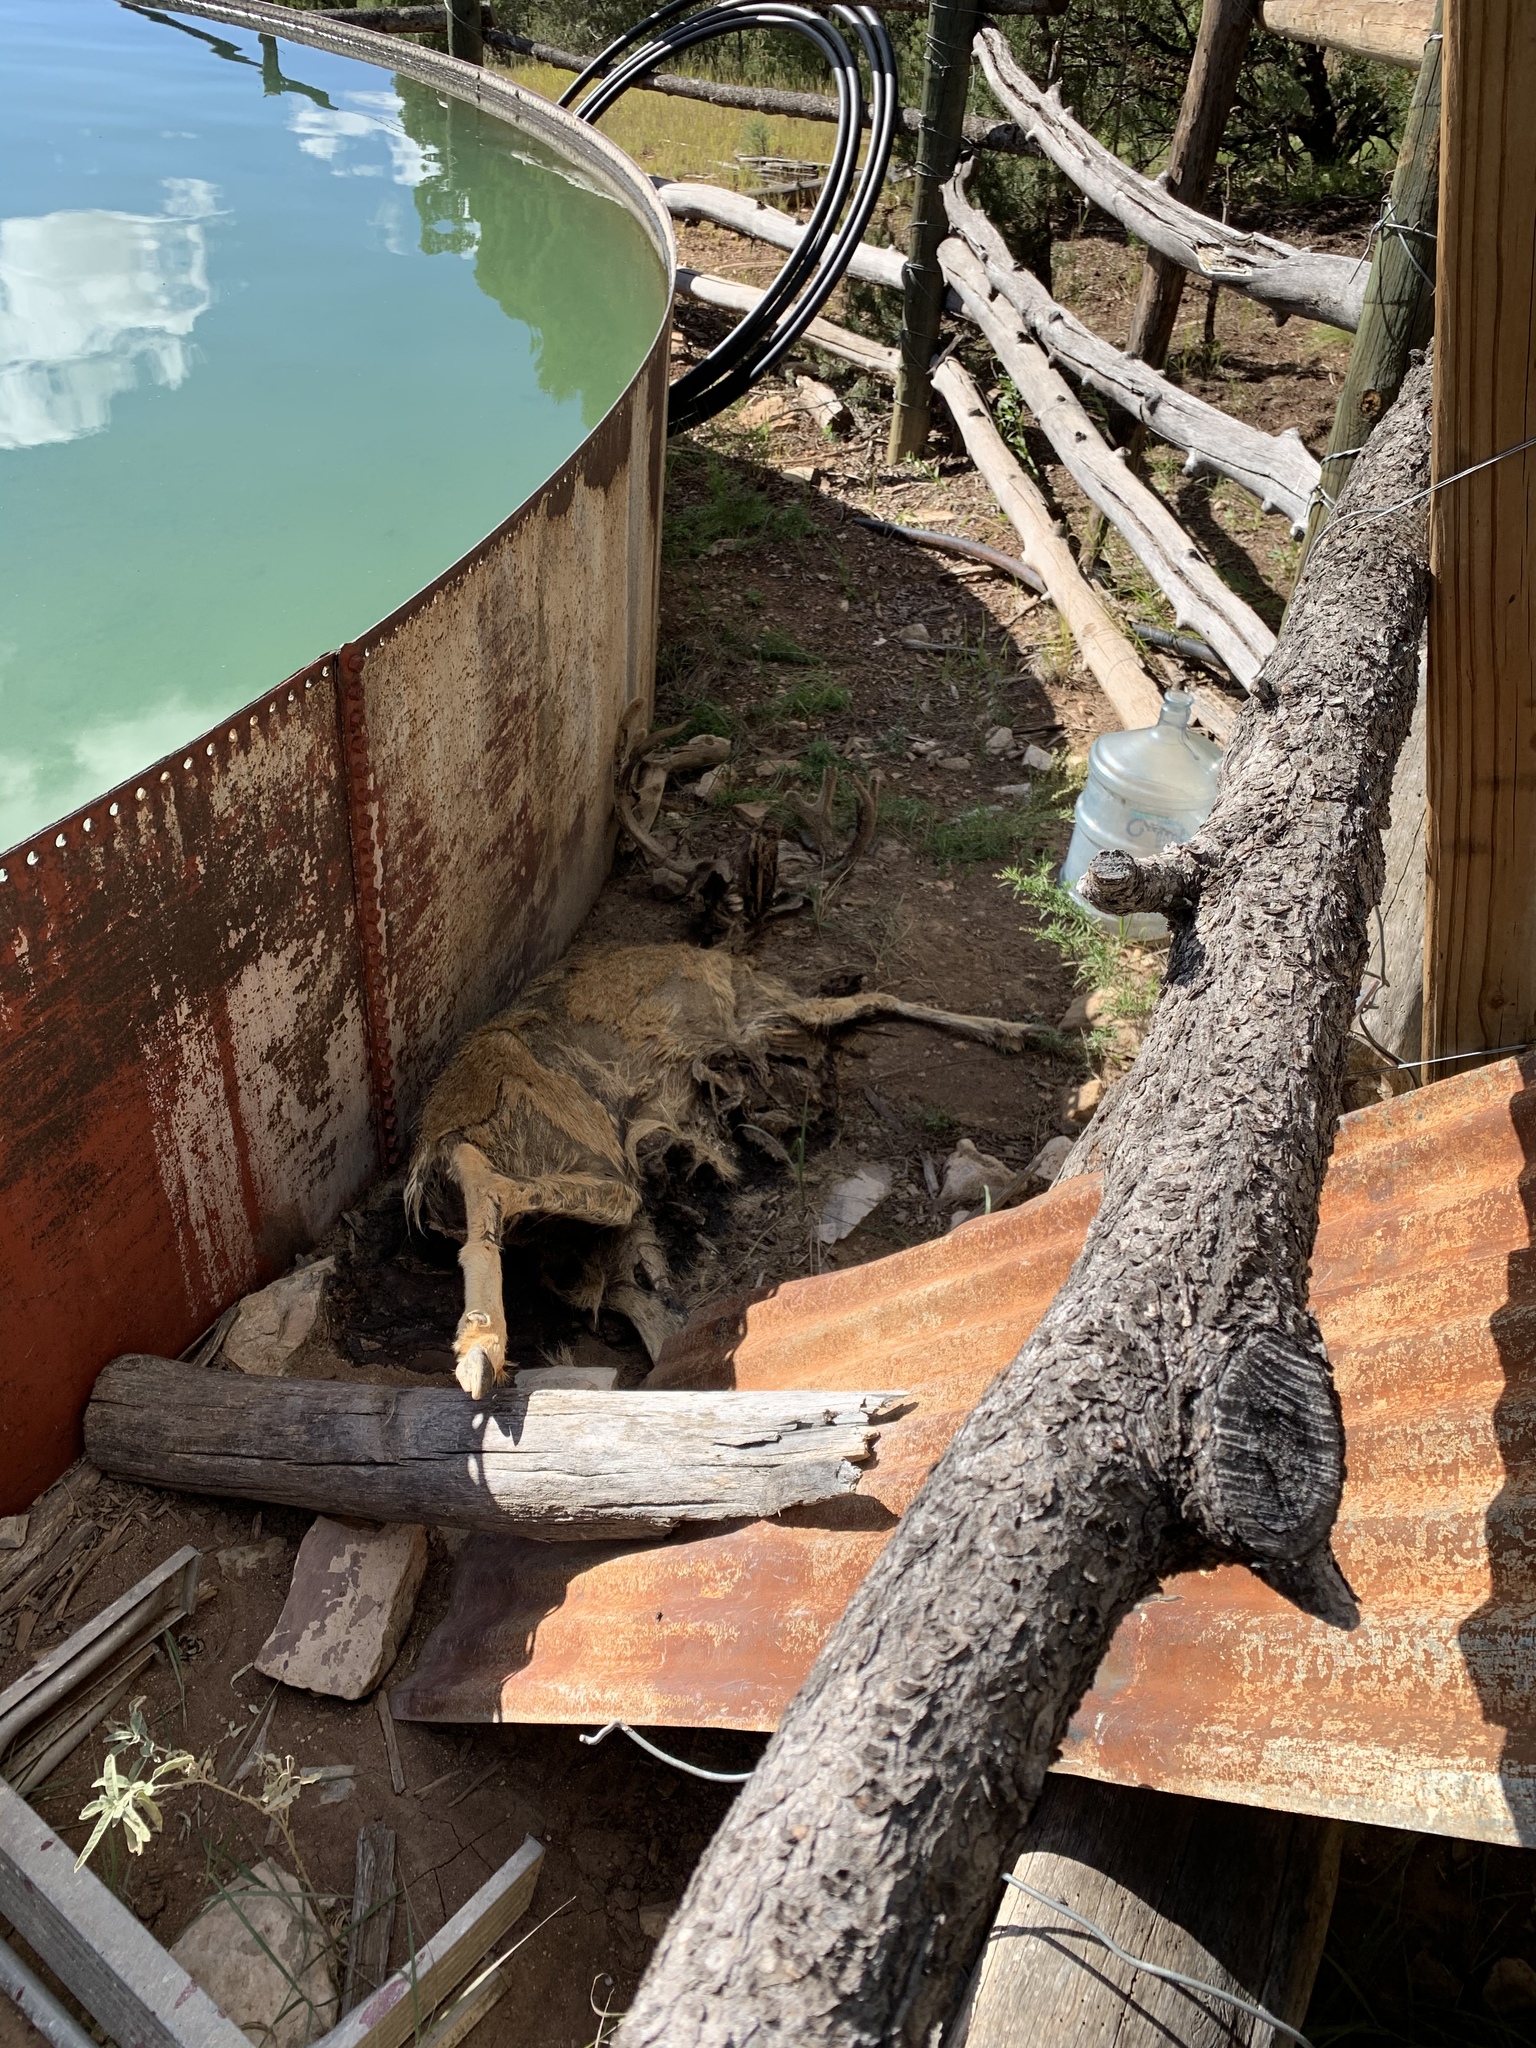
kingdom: Animalia
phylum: Chordata
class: Mammalia
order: Artiodactyla
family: Cervidae
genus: Odocoileus
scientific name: Odocoileus hemionus
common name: Mule deer
